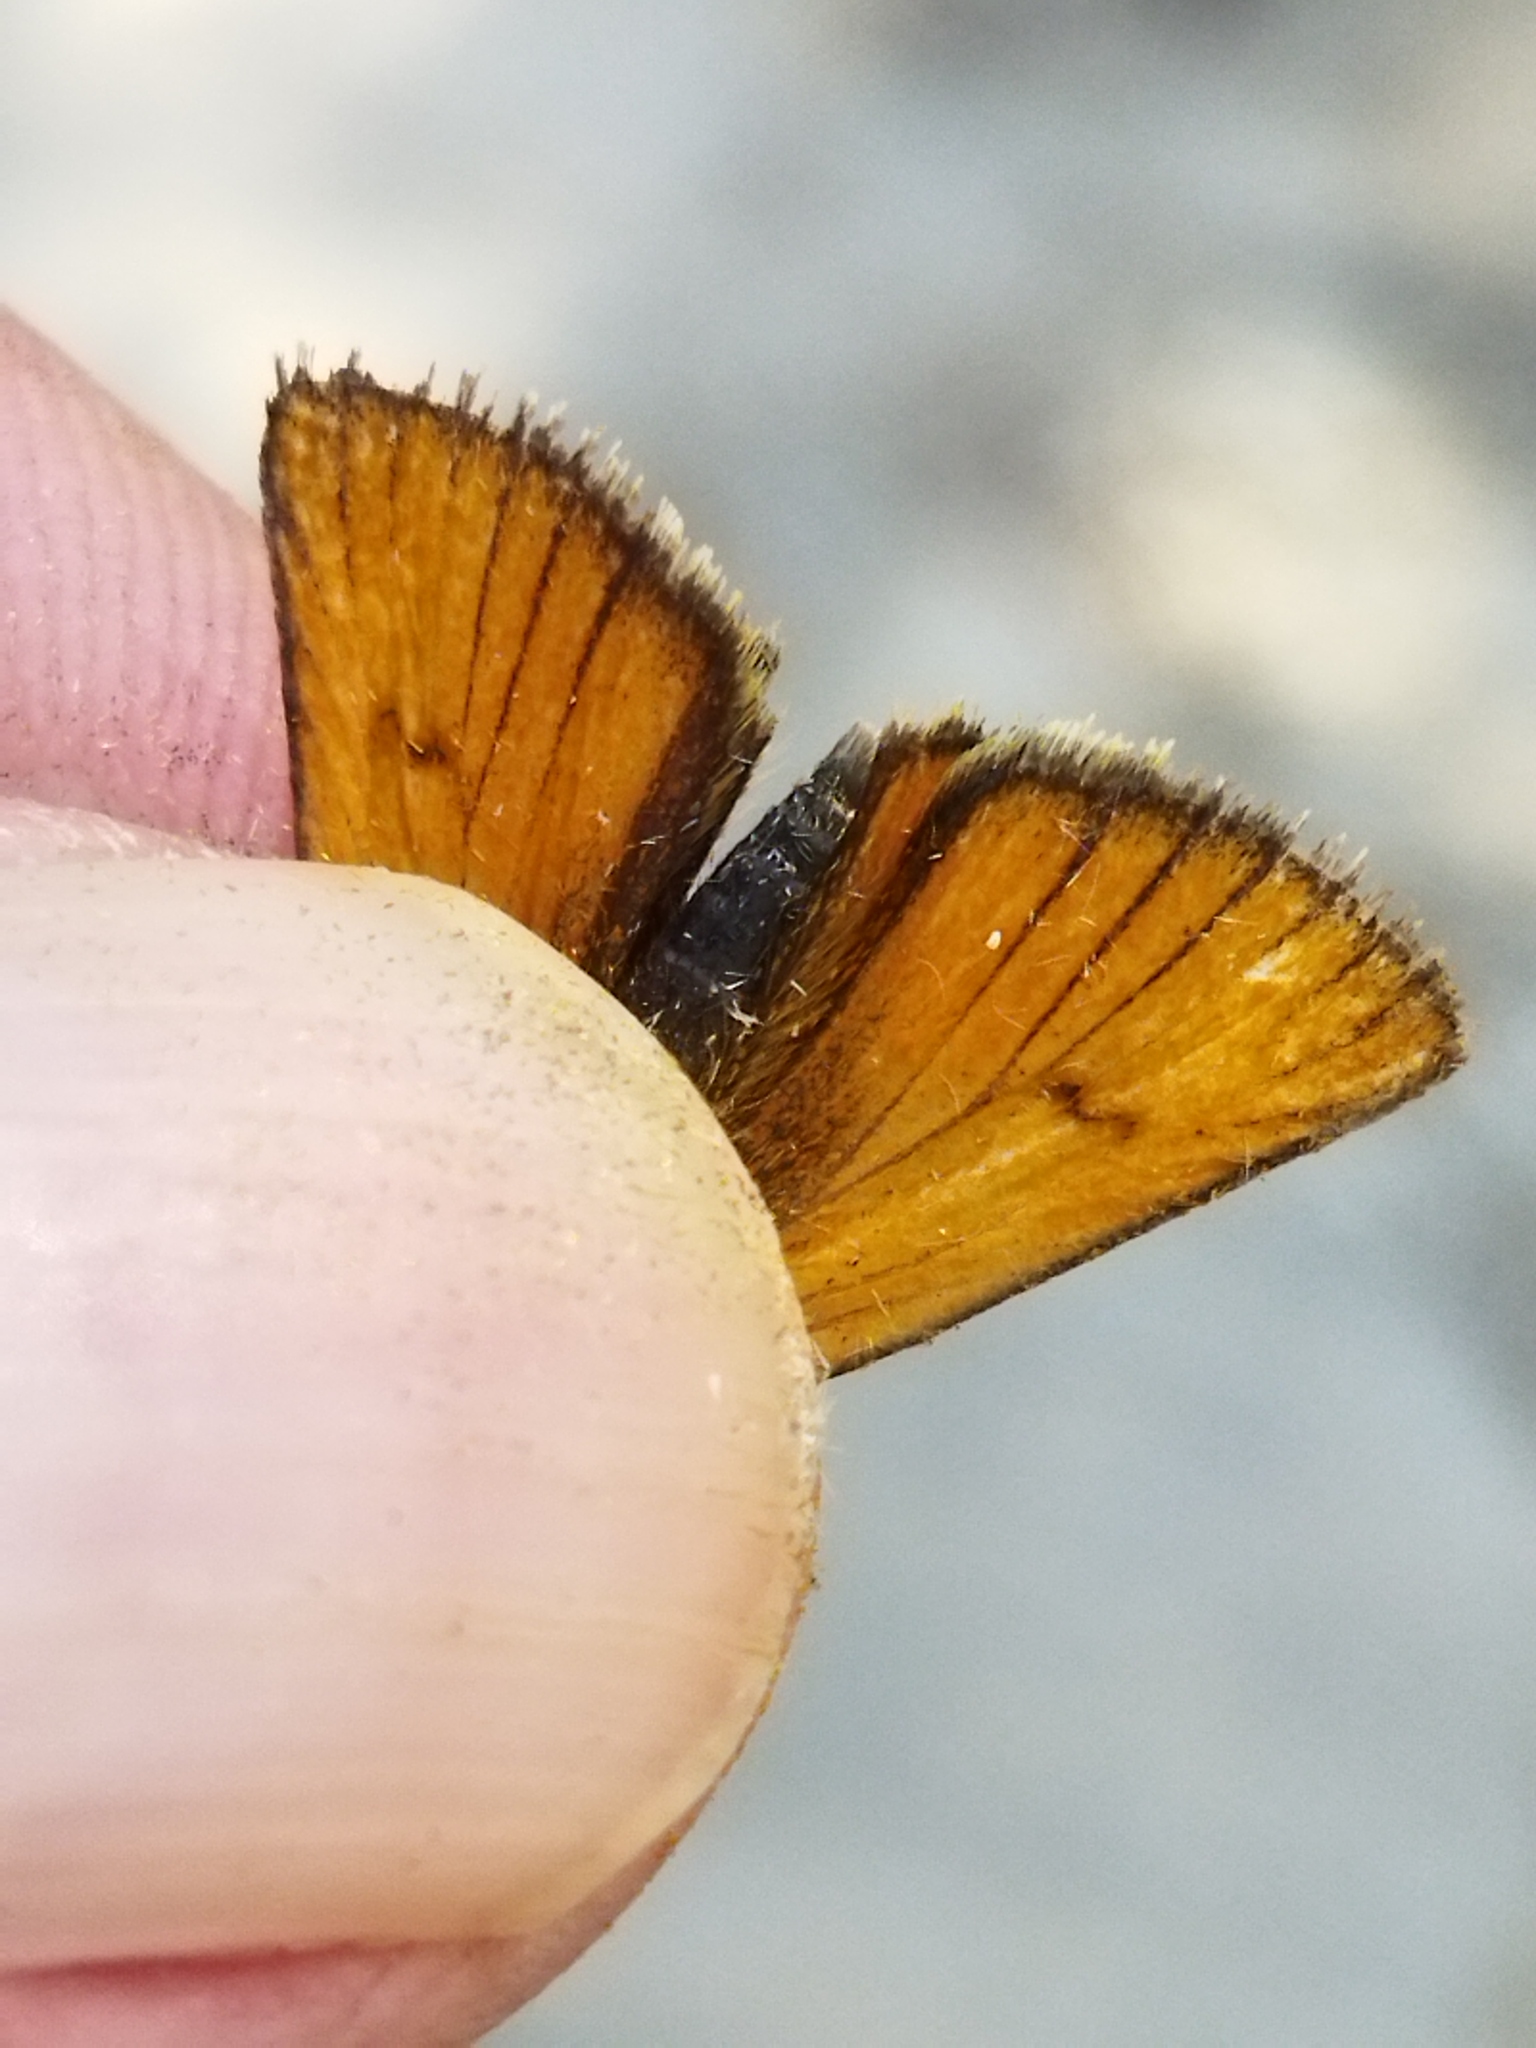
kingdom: Animalia
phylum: Arthropoda
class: Insecta
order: Lepidoptera
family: Hesperiidae
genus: Thymelicus
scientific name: Thymelicus
